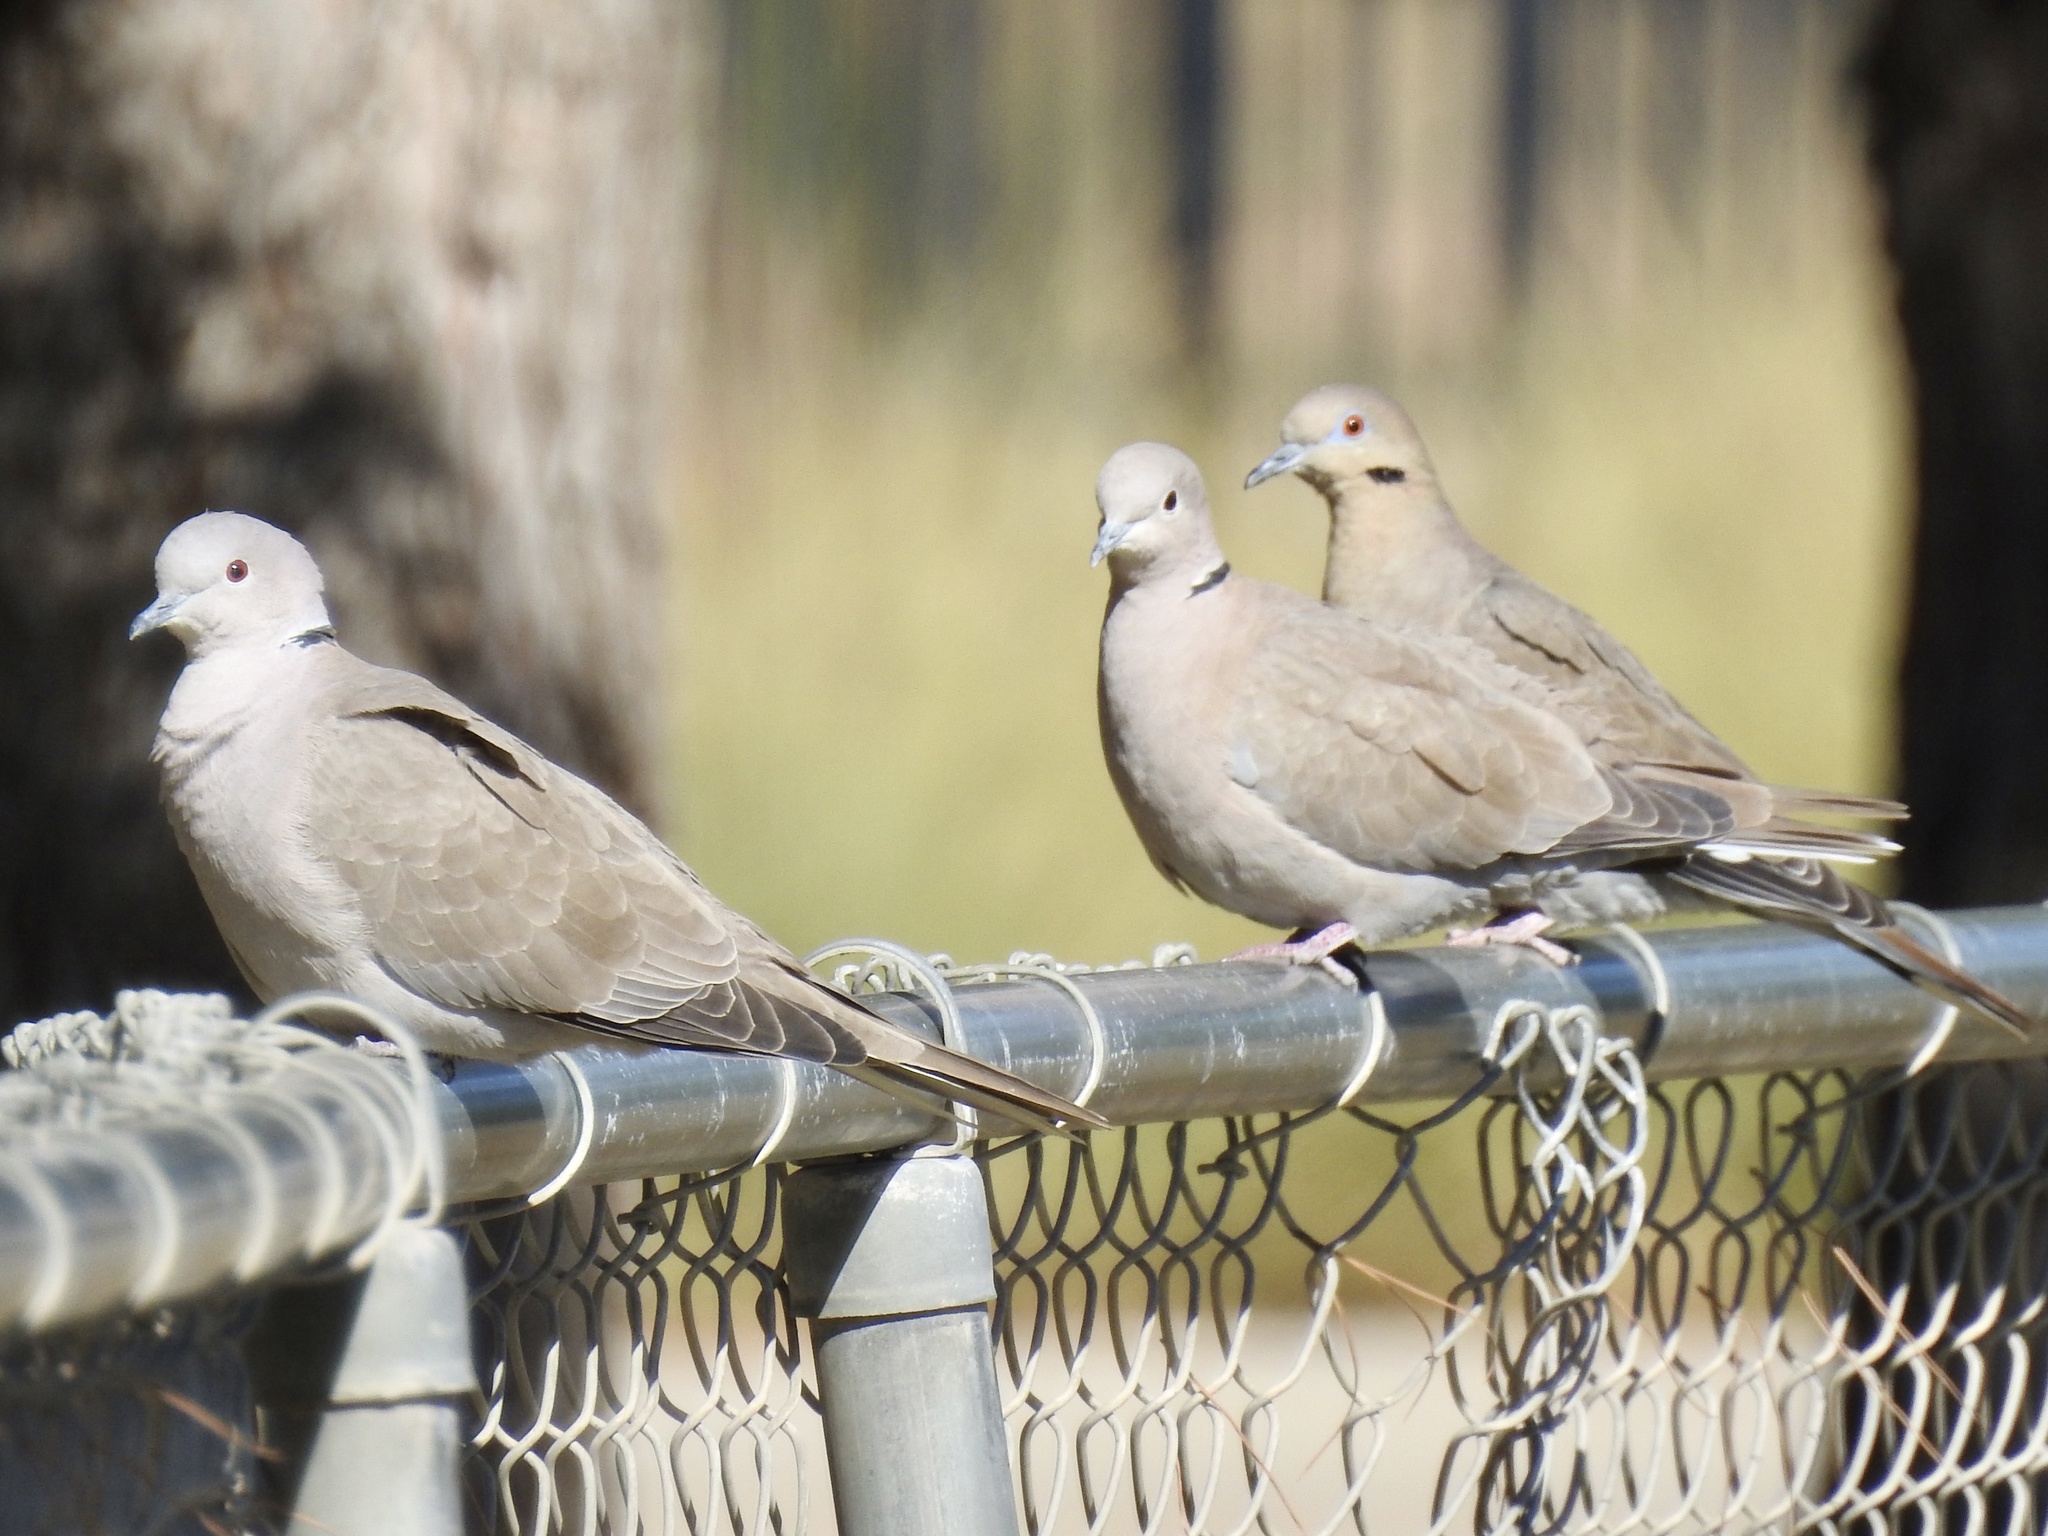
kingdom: Animalia
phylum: Chordata
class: Aves
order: Columbiformes
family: Columbidae
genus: Streptopelia
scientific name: Streptopelia decaocto
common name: Eurasian collared dove
